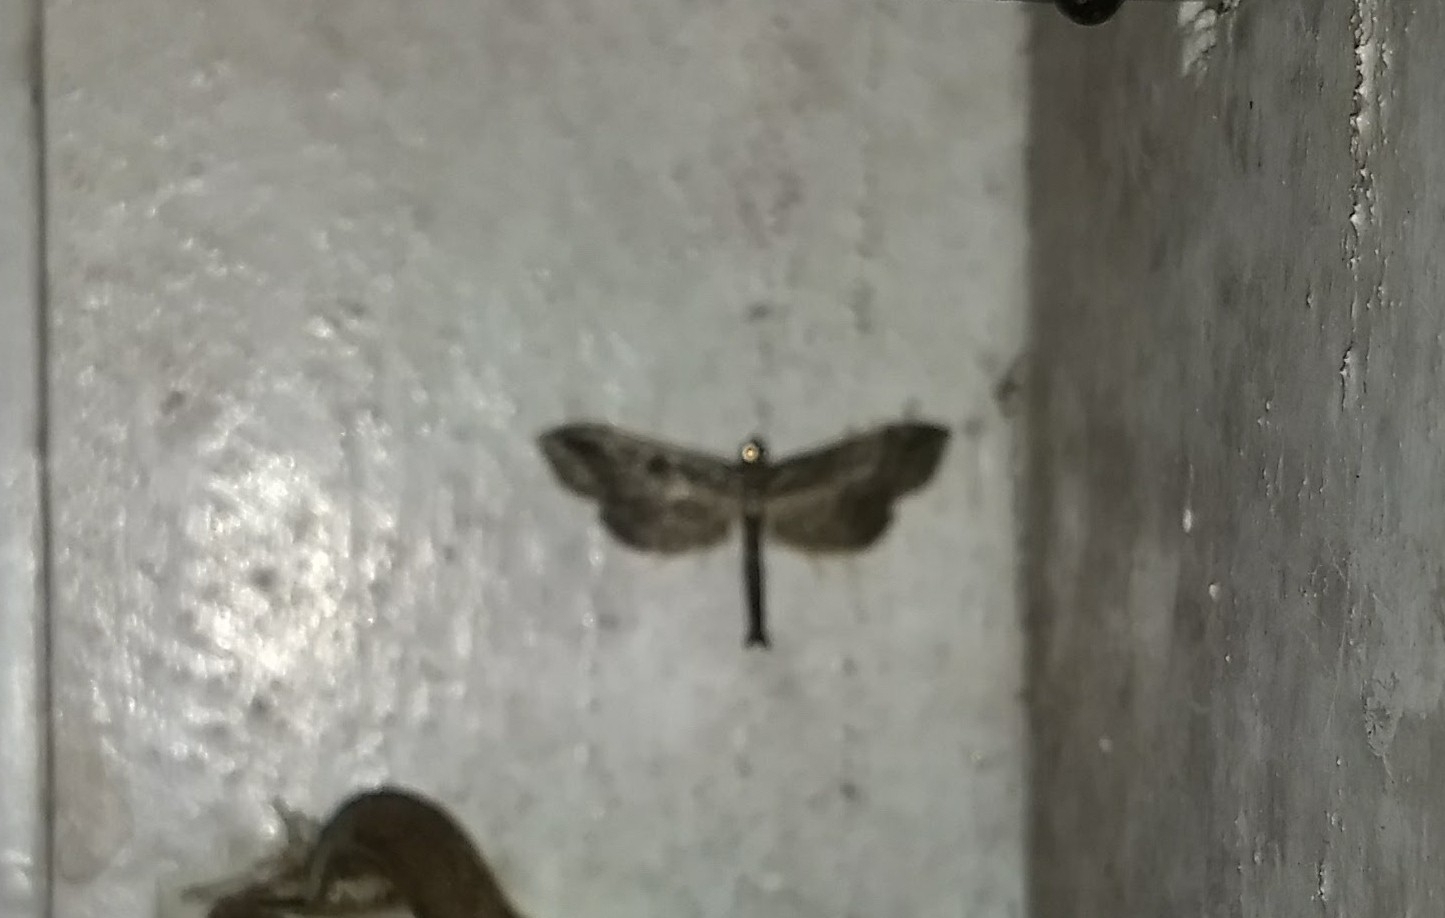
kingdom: Animalia
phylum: Arthropoda
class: Insecta
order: Lepidoptera
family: Crambidae
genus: Hydriris
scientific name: Hydriris ornatalis
